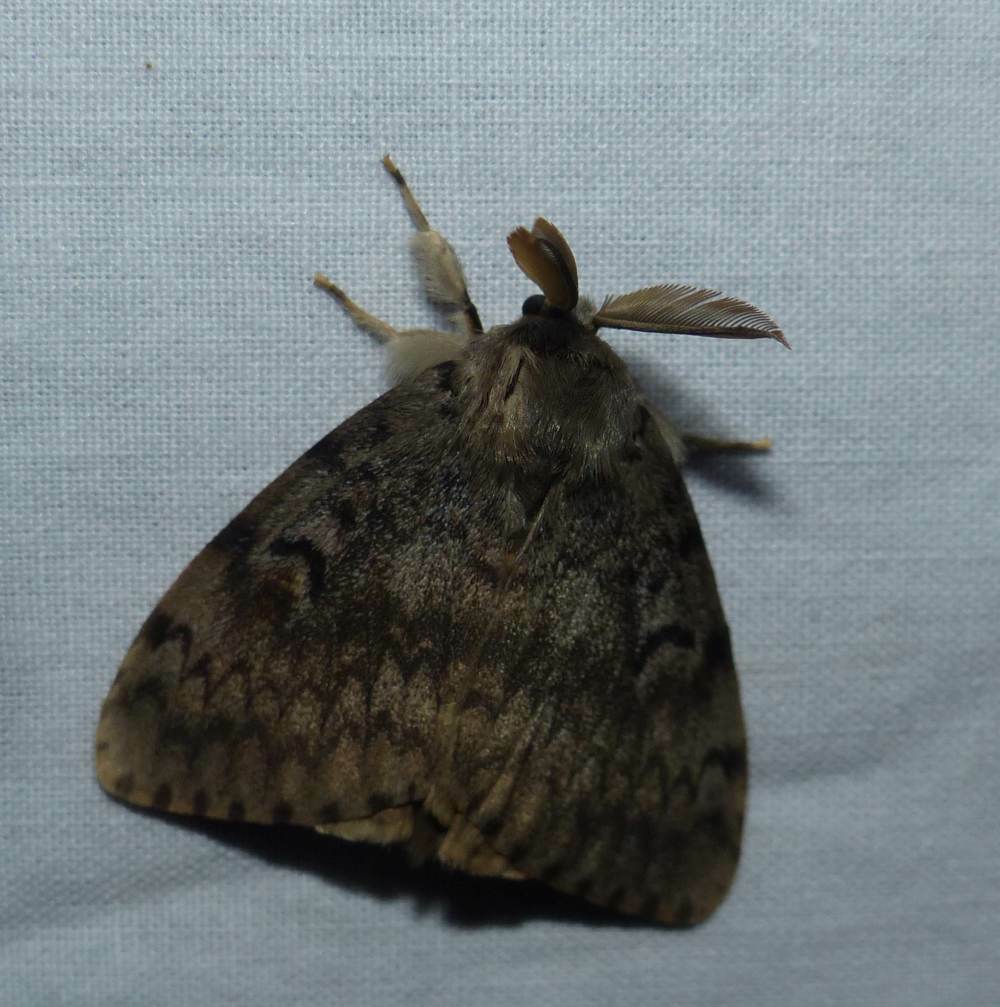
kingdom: Animalia
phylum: Arthropoda
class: Insecta
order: Lepidoptera
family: Erebidae
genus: Lymantria
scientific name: Lymantria dispar
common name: Gypsy moth
